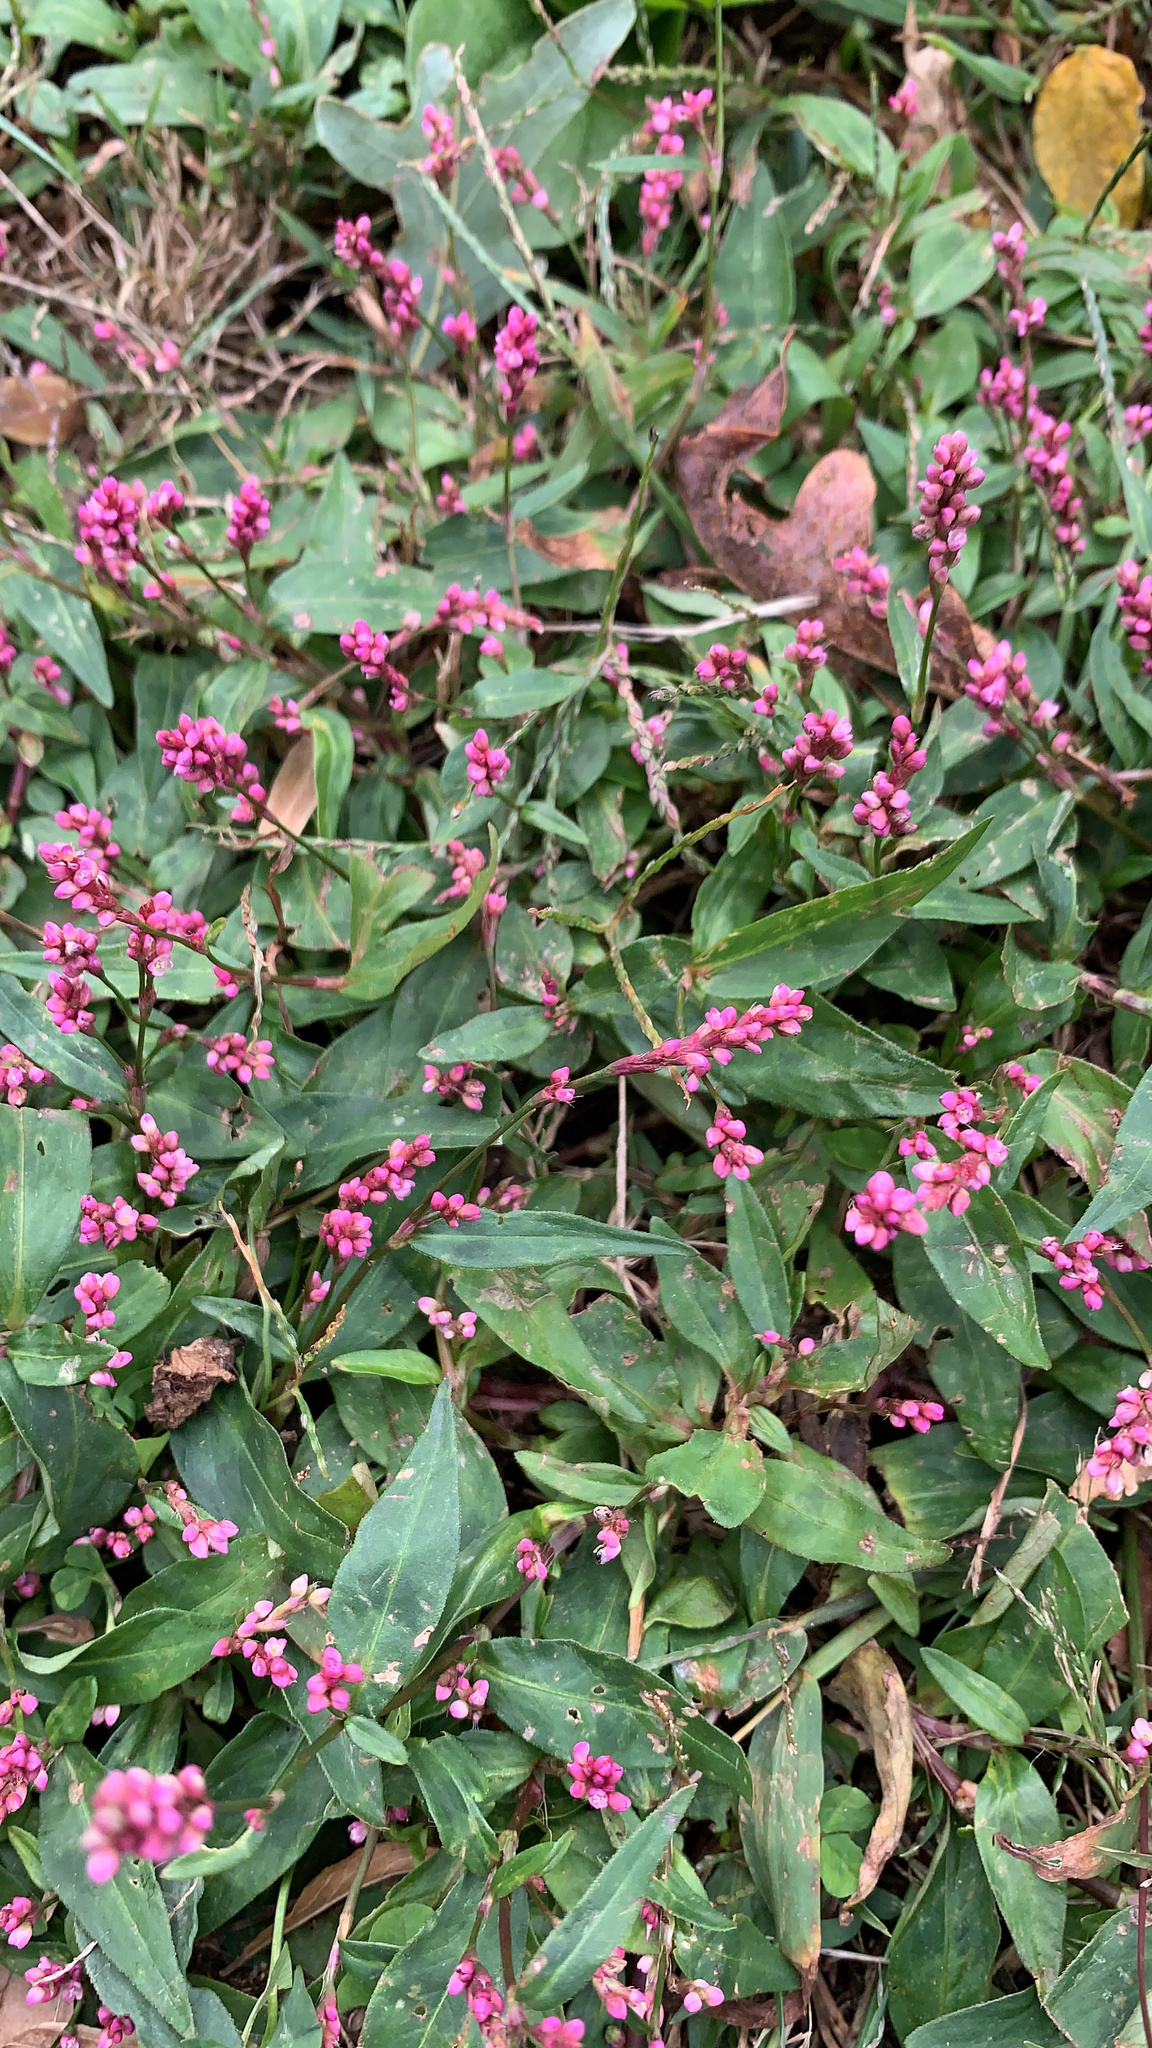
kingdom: Plantae
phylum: Tracheophyta
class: Magnoliopsida
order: Caryophyllales
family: Polygonaceae
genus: Persicaria
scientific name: Persicaria longiseta
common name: Bristly lady's-thumb
